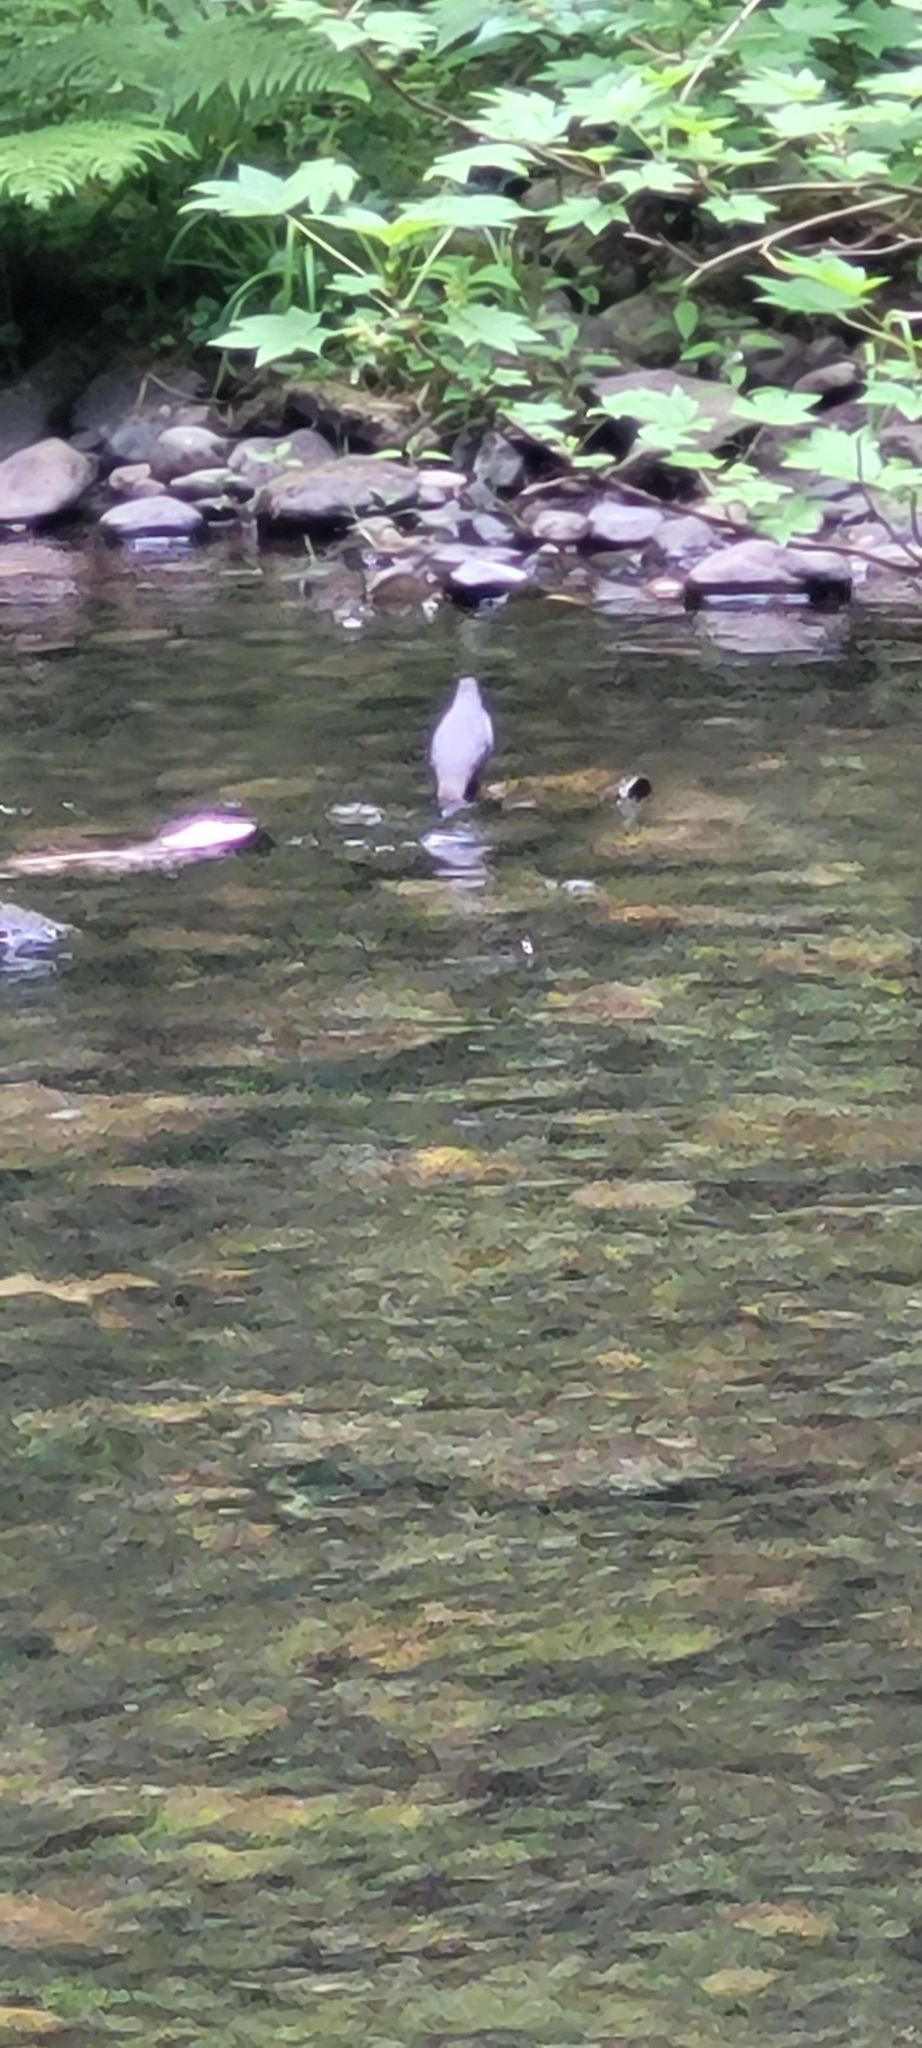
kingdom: Animalia
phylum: Chordata
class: Aves
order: Passeriformes
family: Cinclidae
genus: Cinclus
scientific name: Cinclus mexicanus
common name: American dipper
